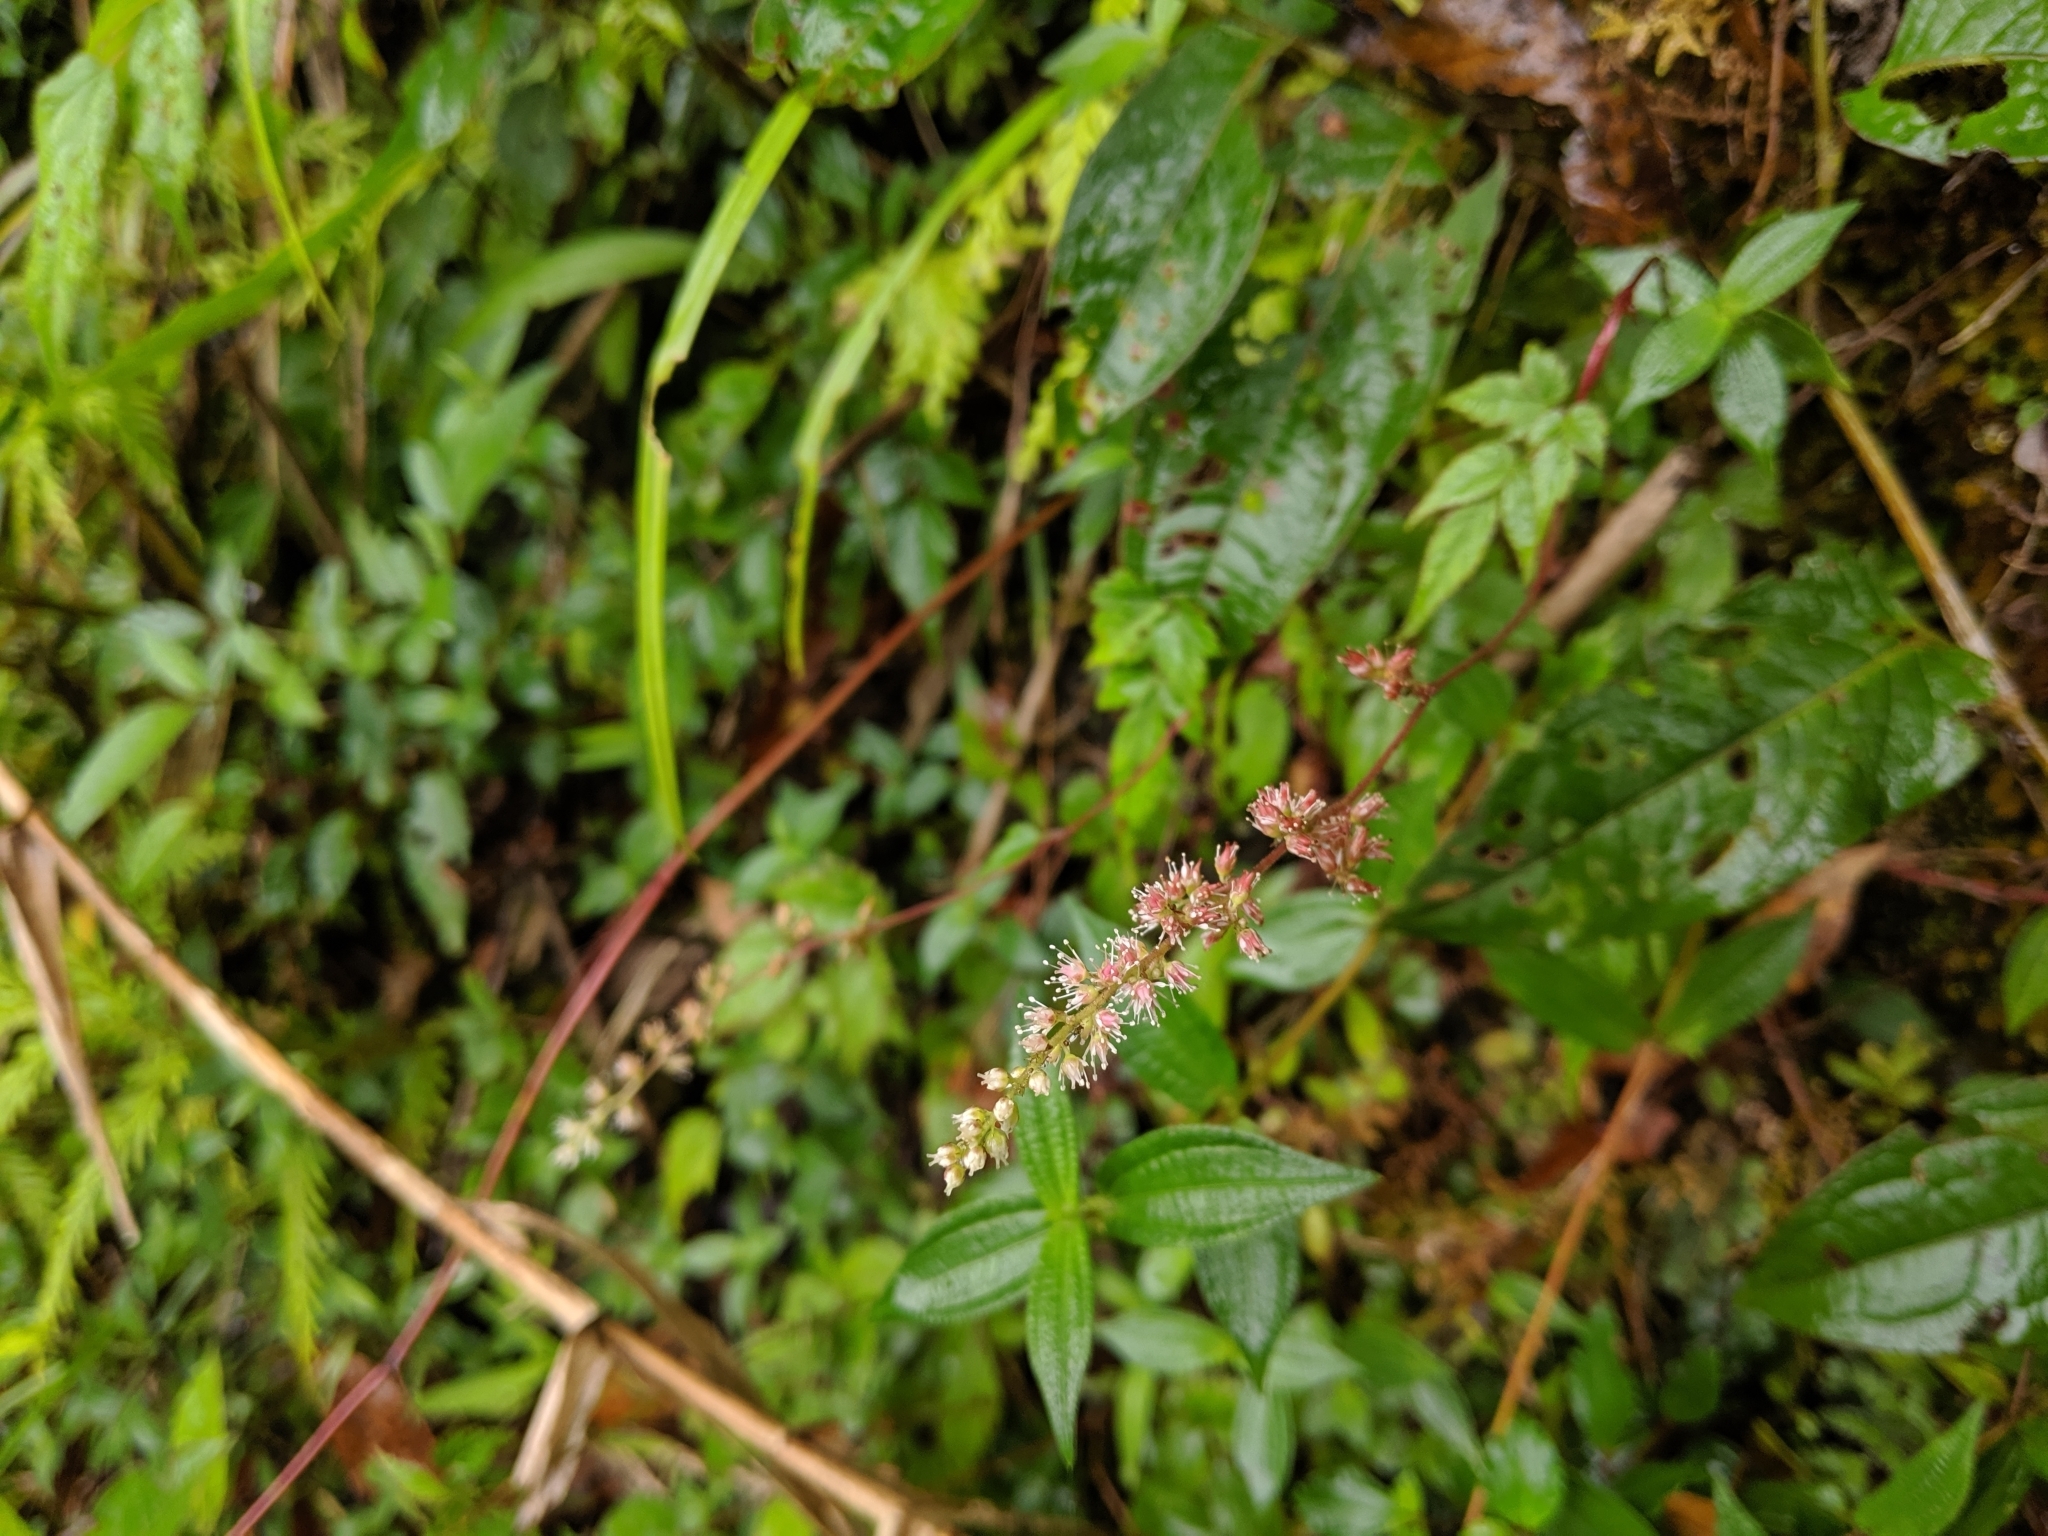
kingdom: Plantae
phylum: Tracheophyta
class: Magnoliopsida
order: Saxifragales
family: Saxifragaceae
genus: Astilbe
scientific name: Astilbe longicarpa
